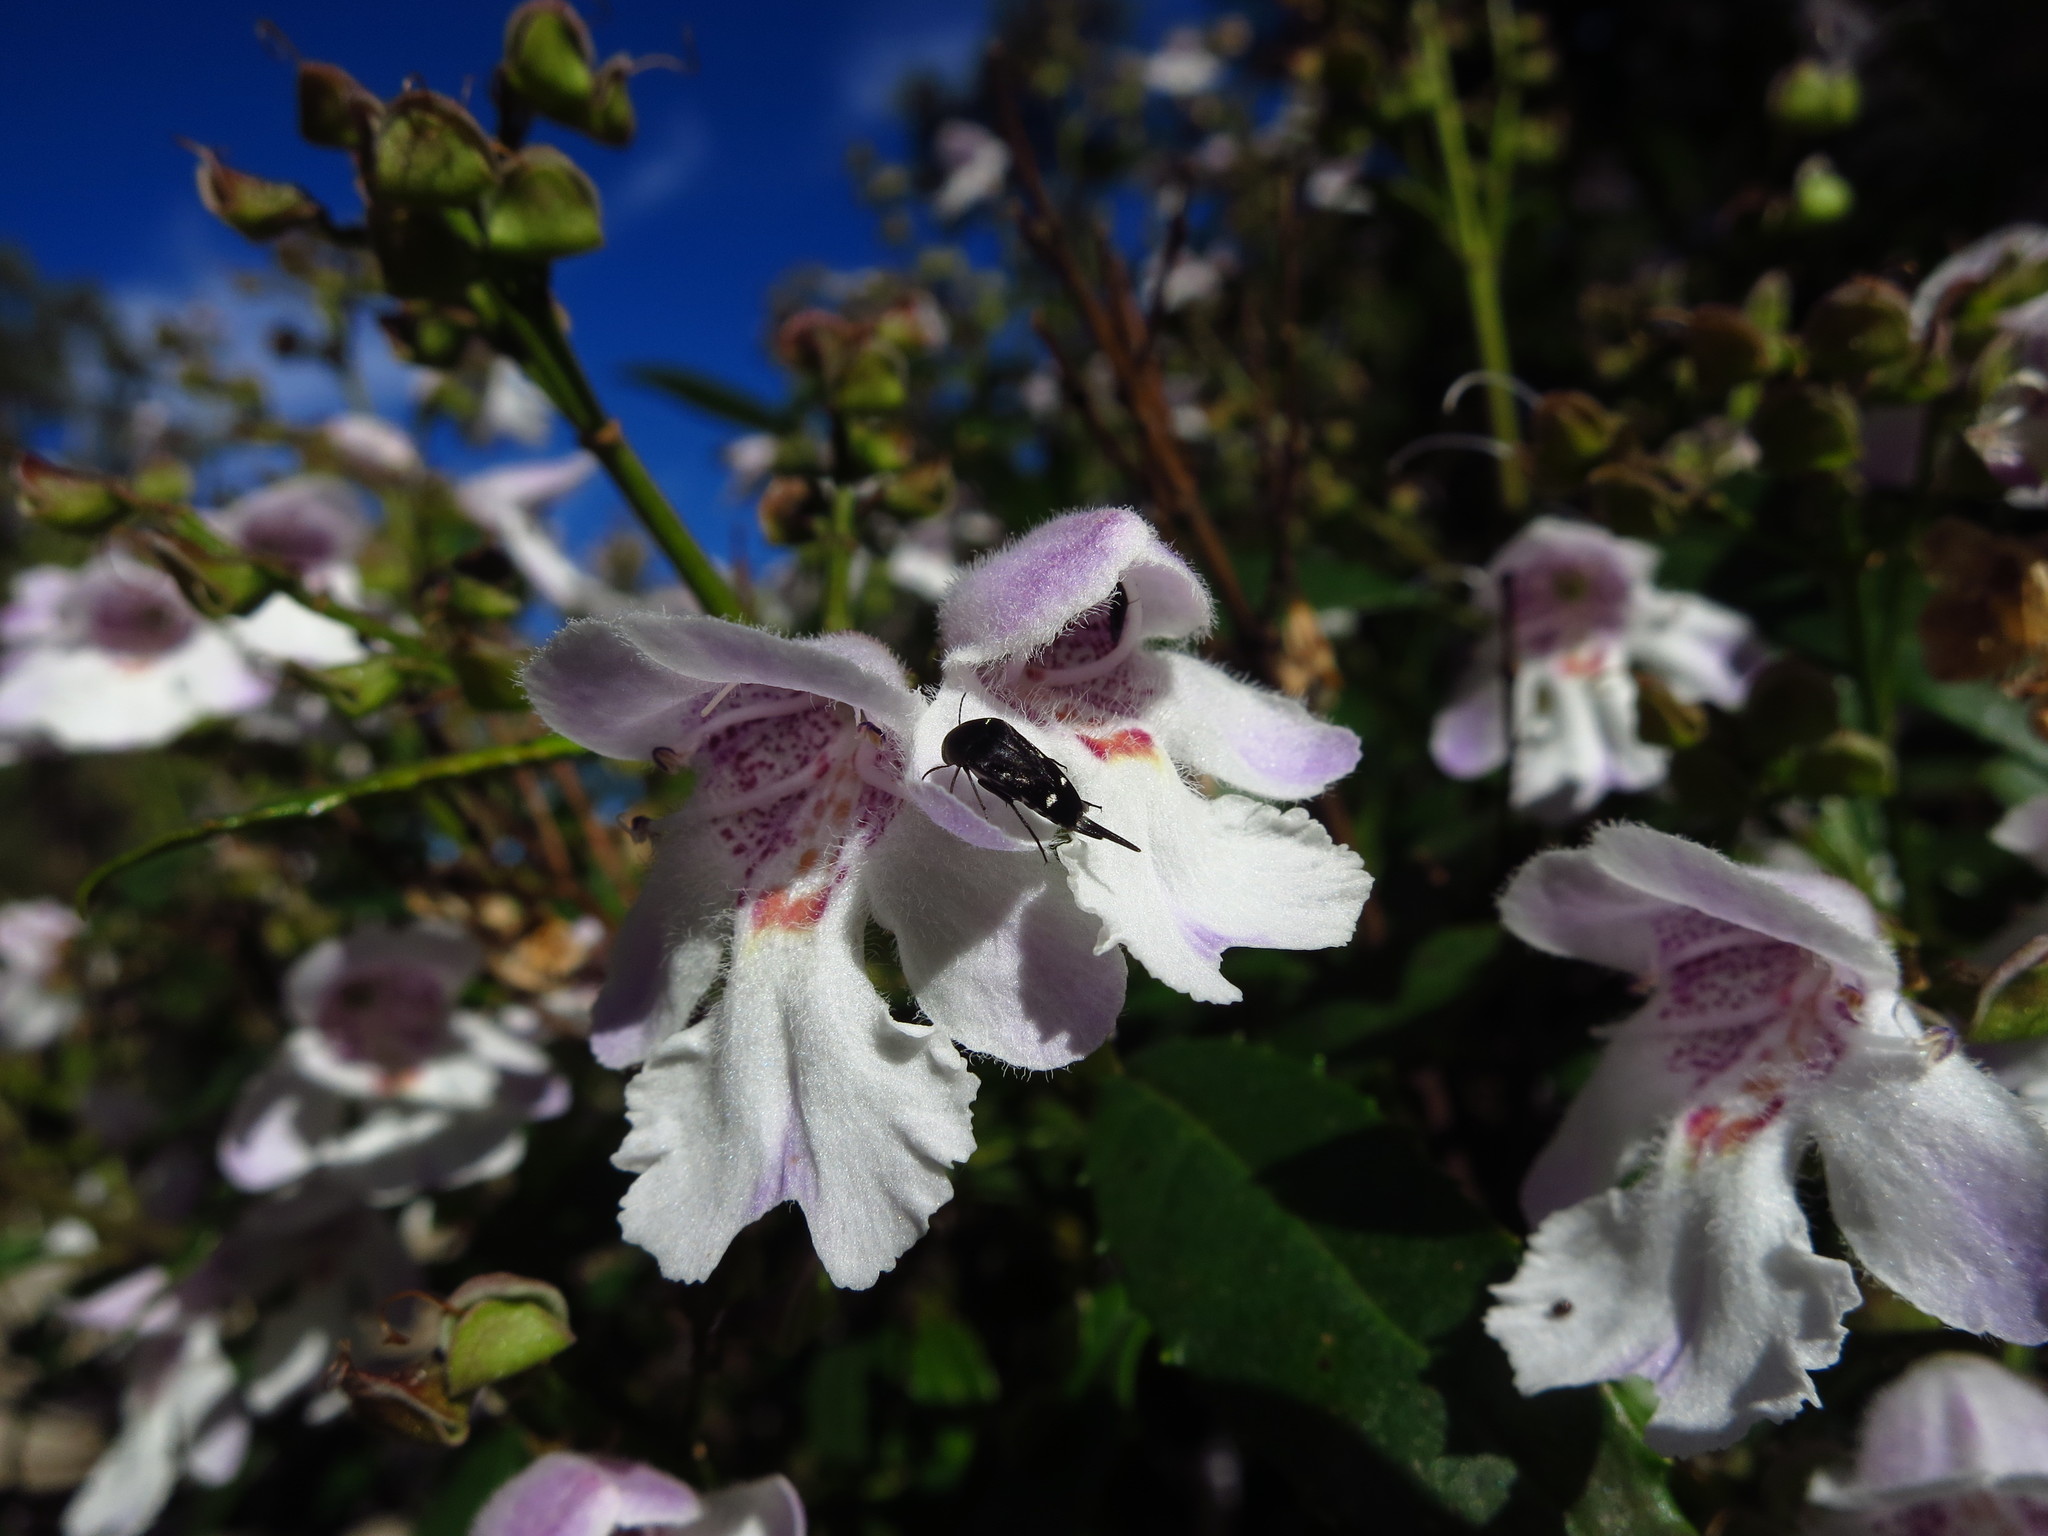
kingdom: Plantae
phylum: Tracheophyta
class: Magnoliopsida
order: Lamiales
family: Lamiaceae
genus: Prostanthera
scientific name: Prostanthera lasianthos
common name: Mountain-lilac
